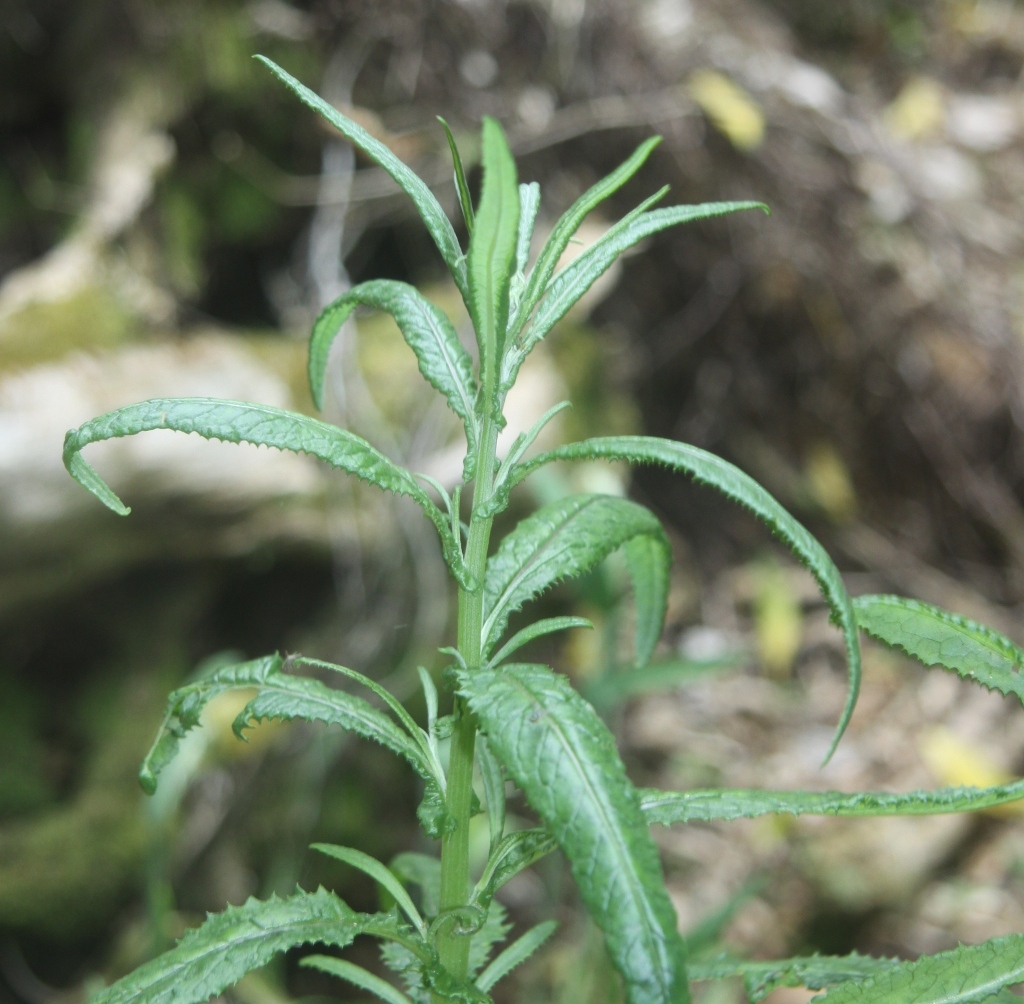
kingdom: Plantae
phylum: Tracheophyta
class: Magnoliopsida
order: Asterales
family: Asteraceae
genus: Senecio
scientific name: Senecio minimus
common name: Toothed fireweed
